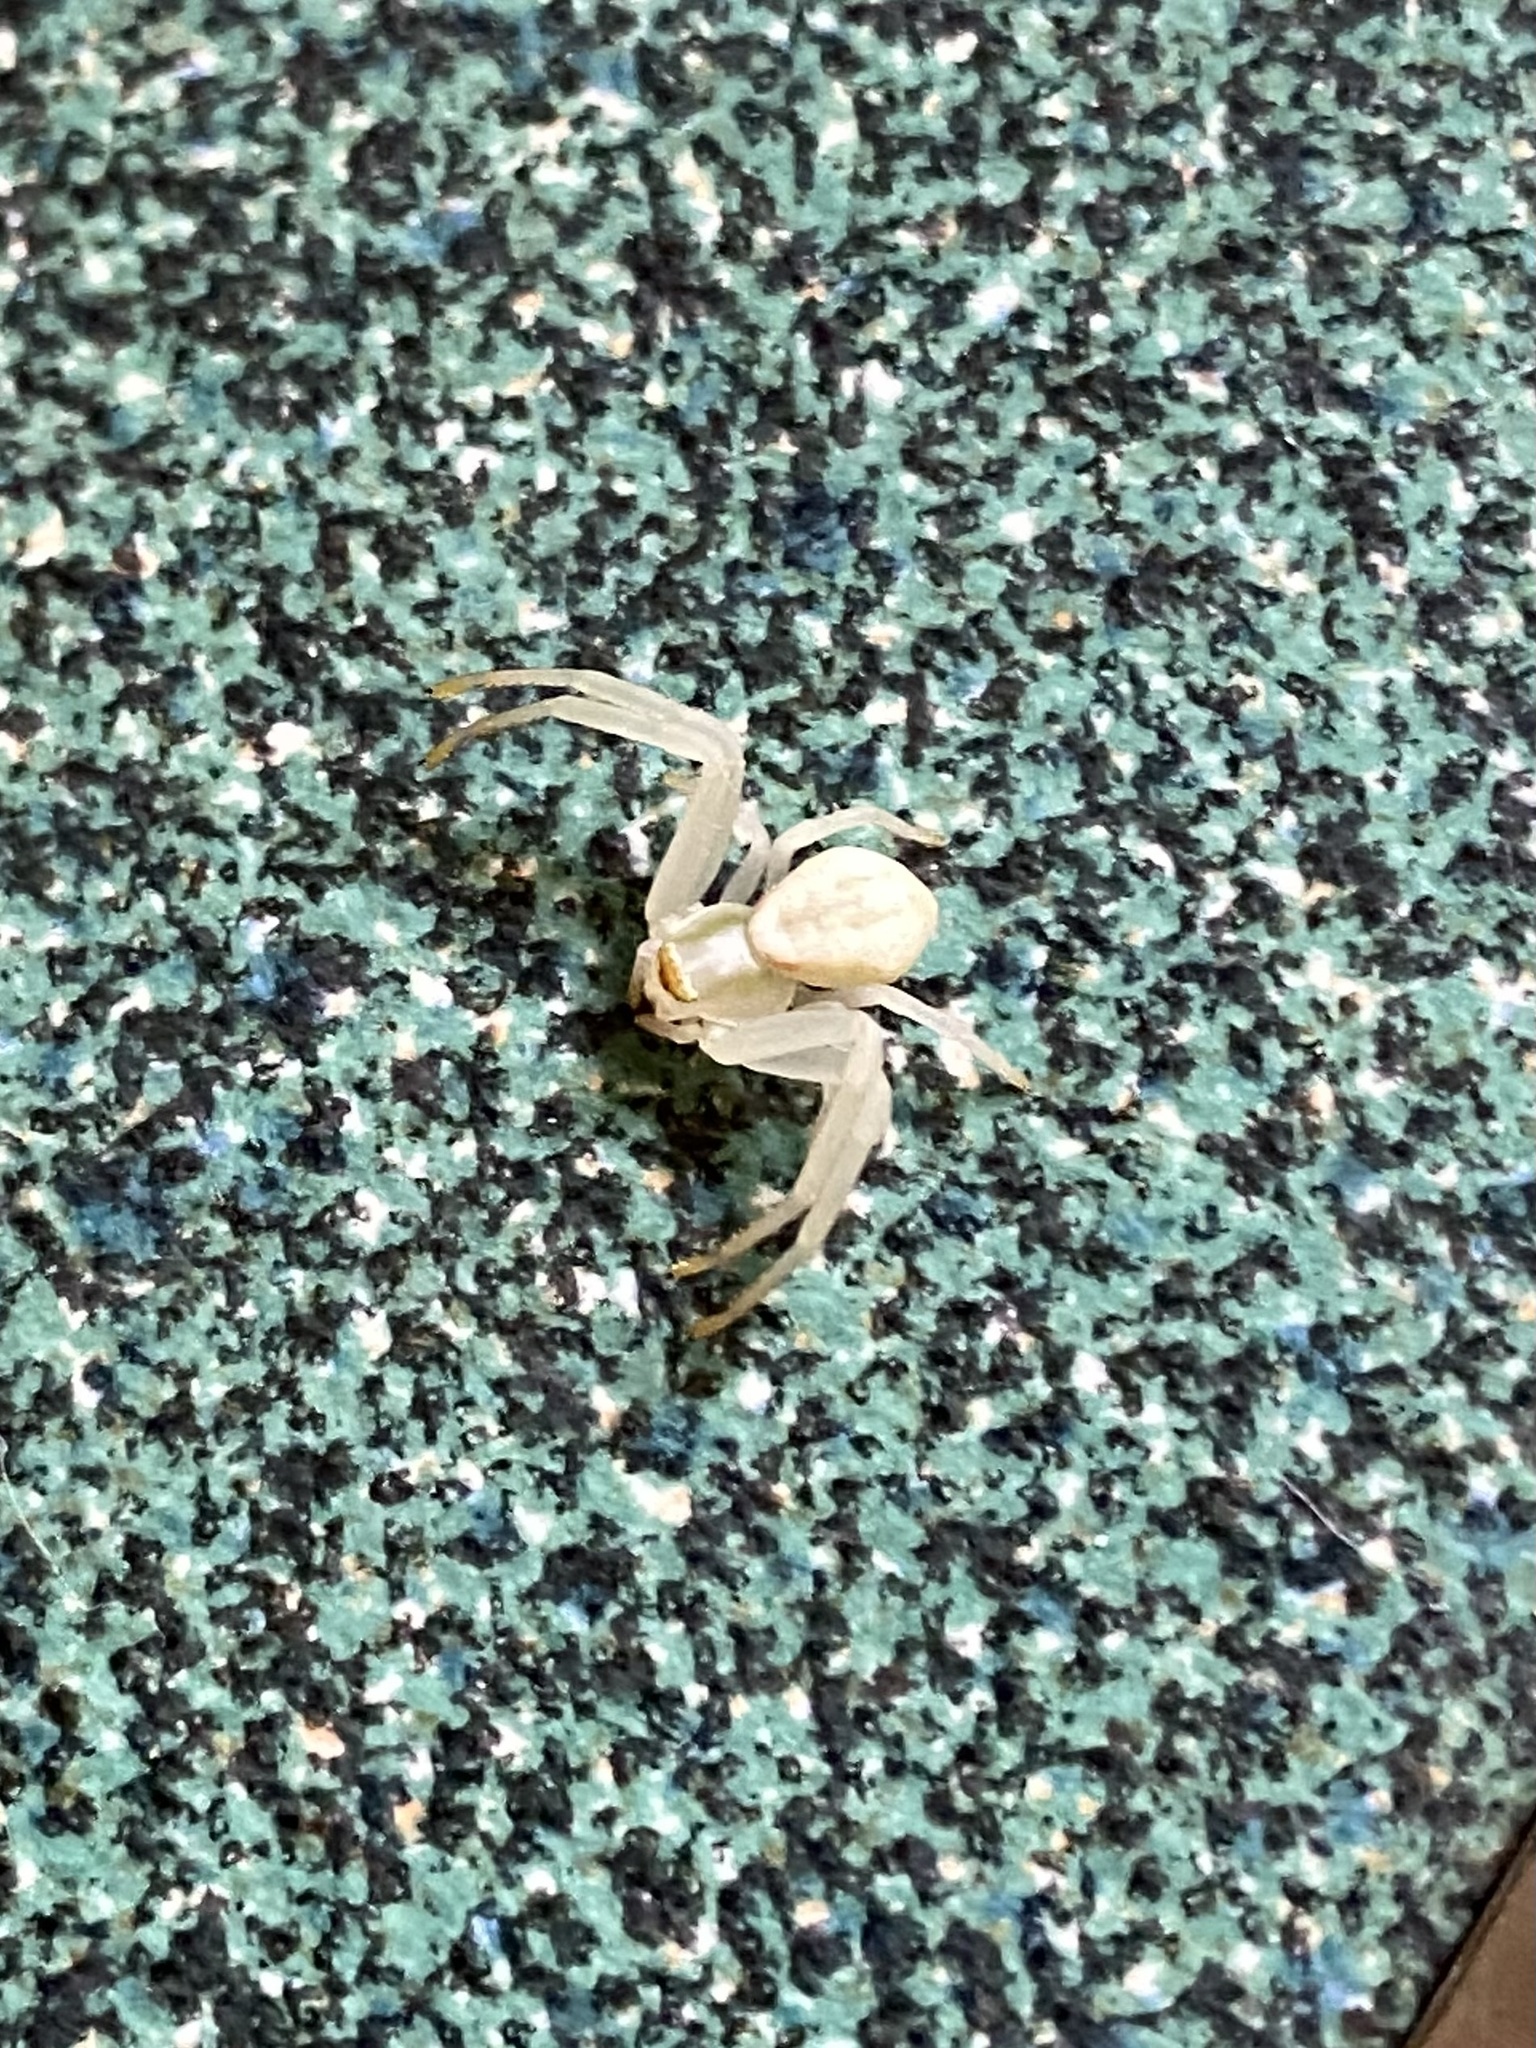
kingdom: Animalia
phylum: Arthropoda
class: Arachnida
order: Araneae
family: Thomisidae
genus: Misumena
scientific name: Misumena vatia
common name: Goldenrod crab spider
